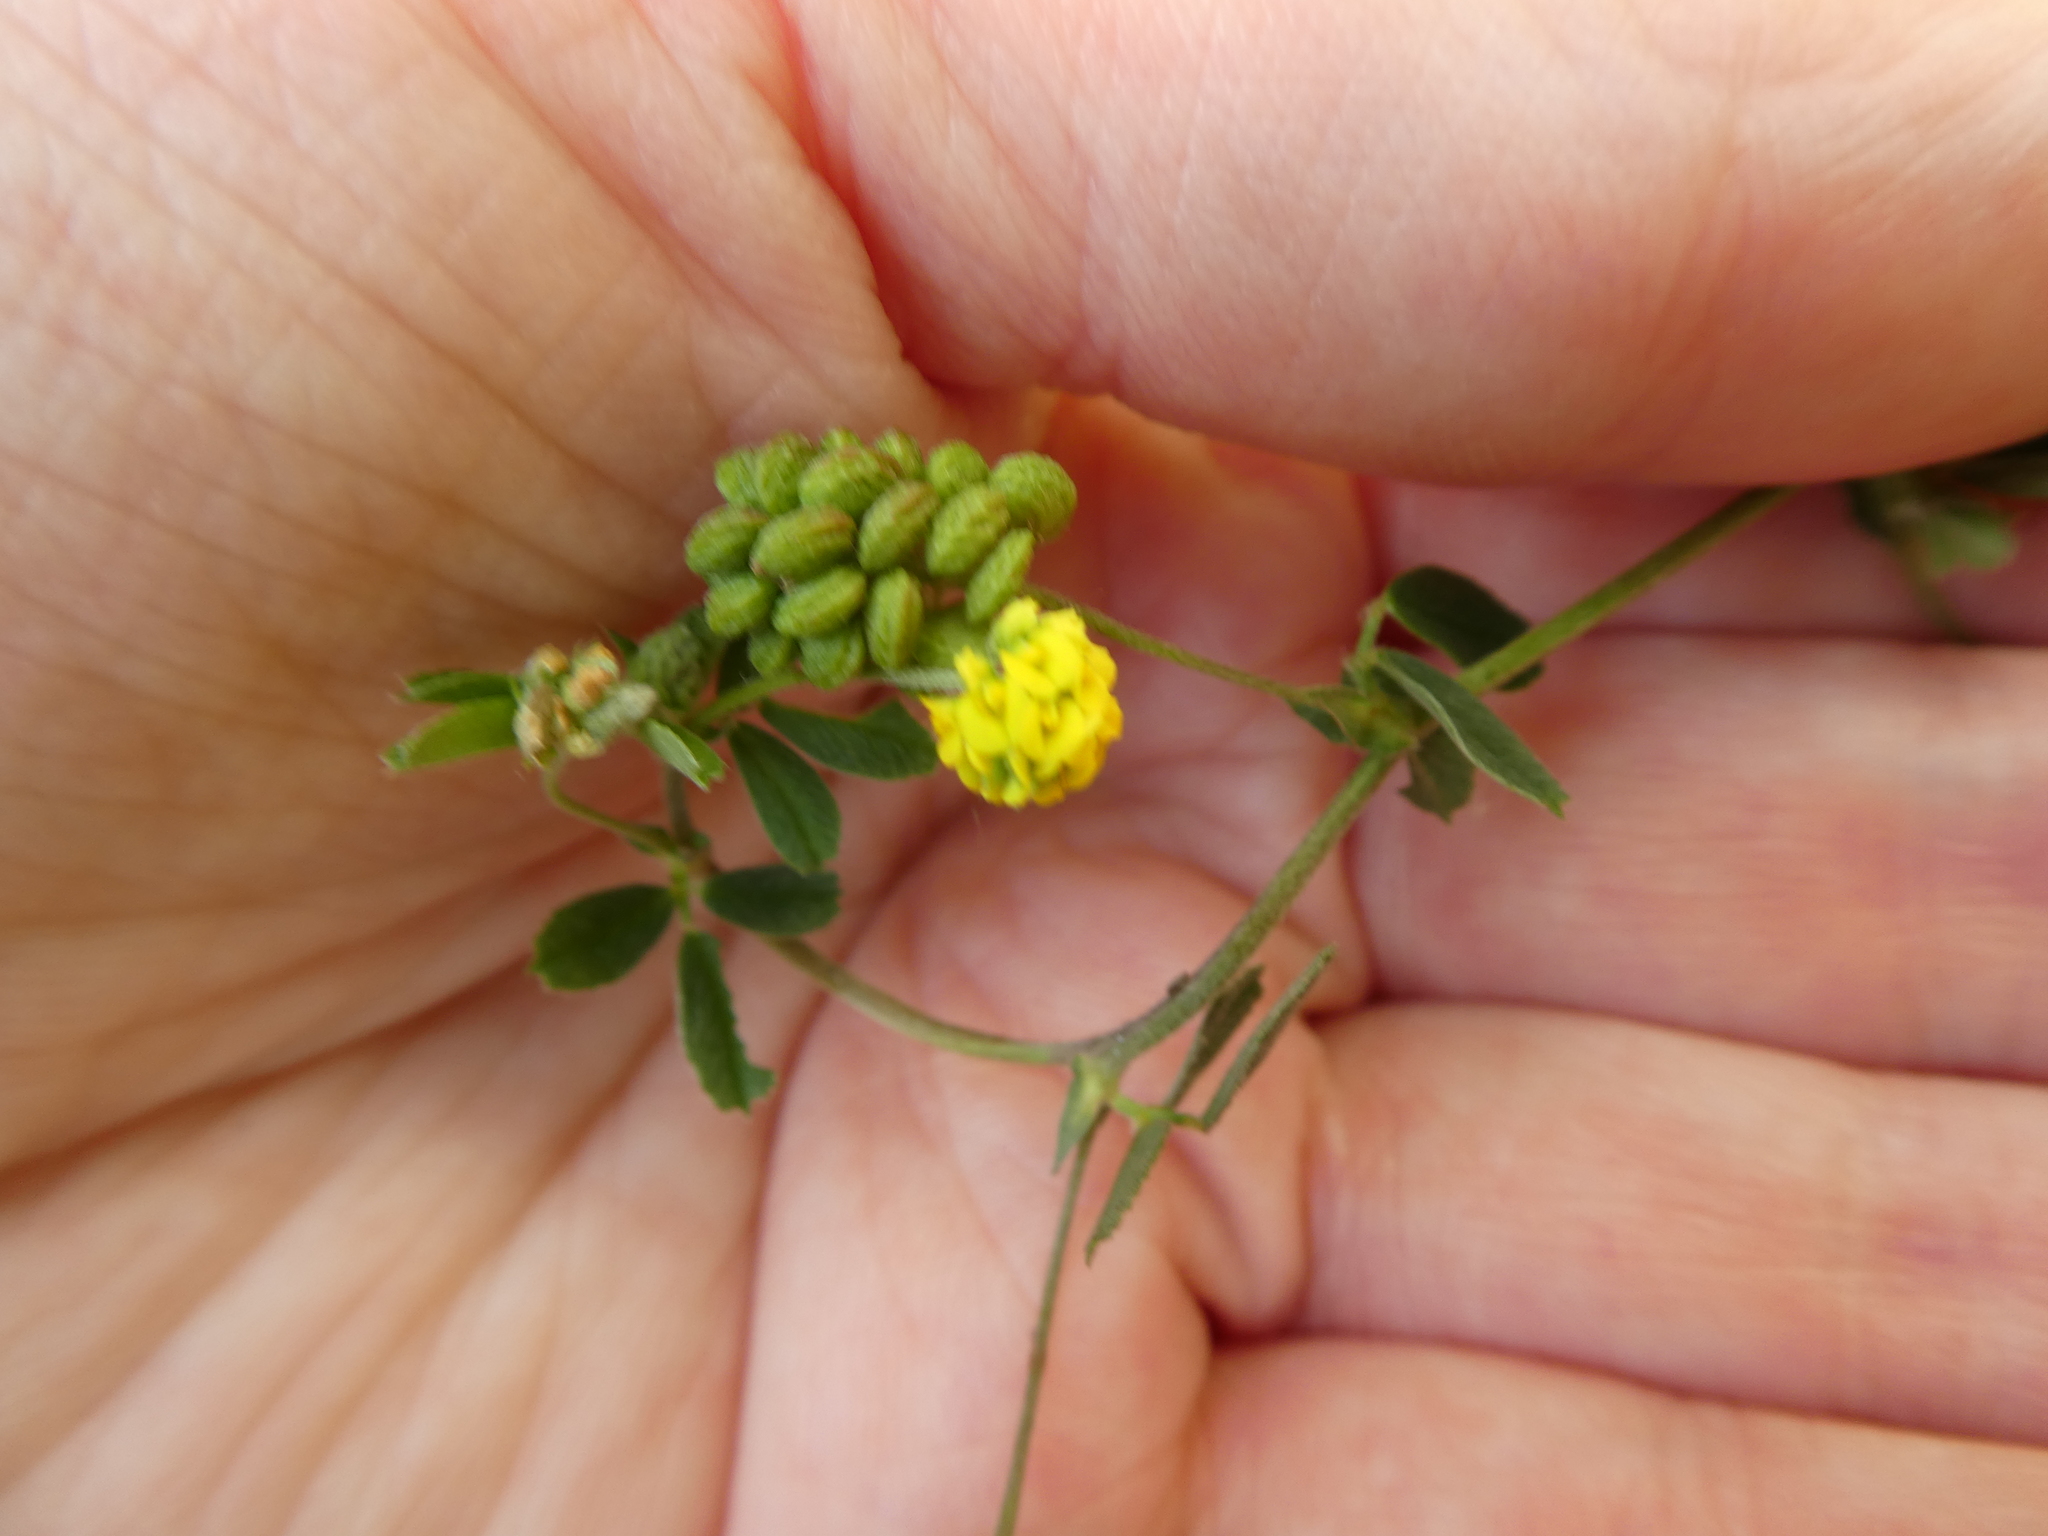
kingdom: Plantae
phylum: Tracheophyta
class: Magnoliopsida
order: Fabales
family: Fabaceae
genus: Medicago
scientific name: Medicago lupulina
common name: Black medick
